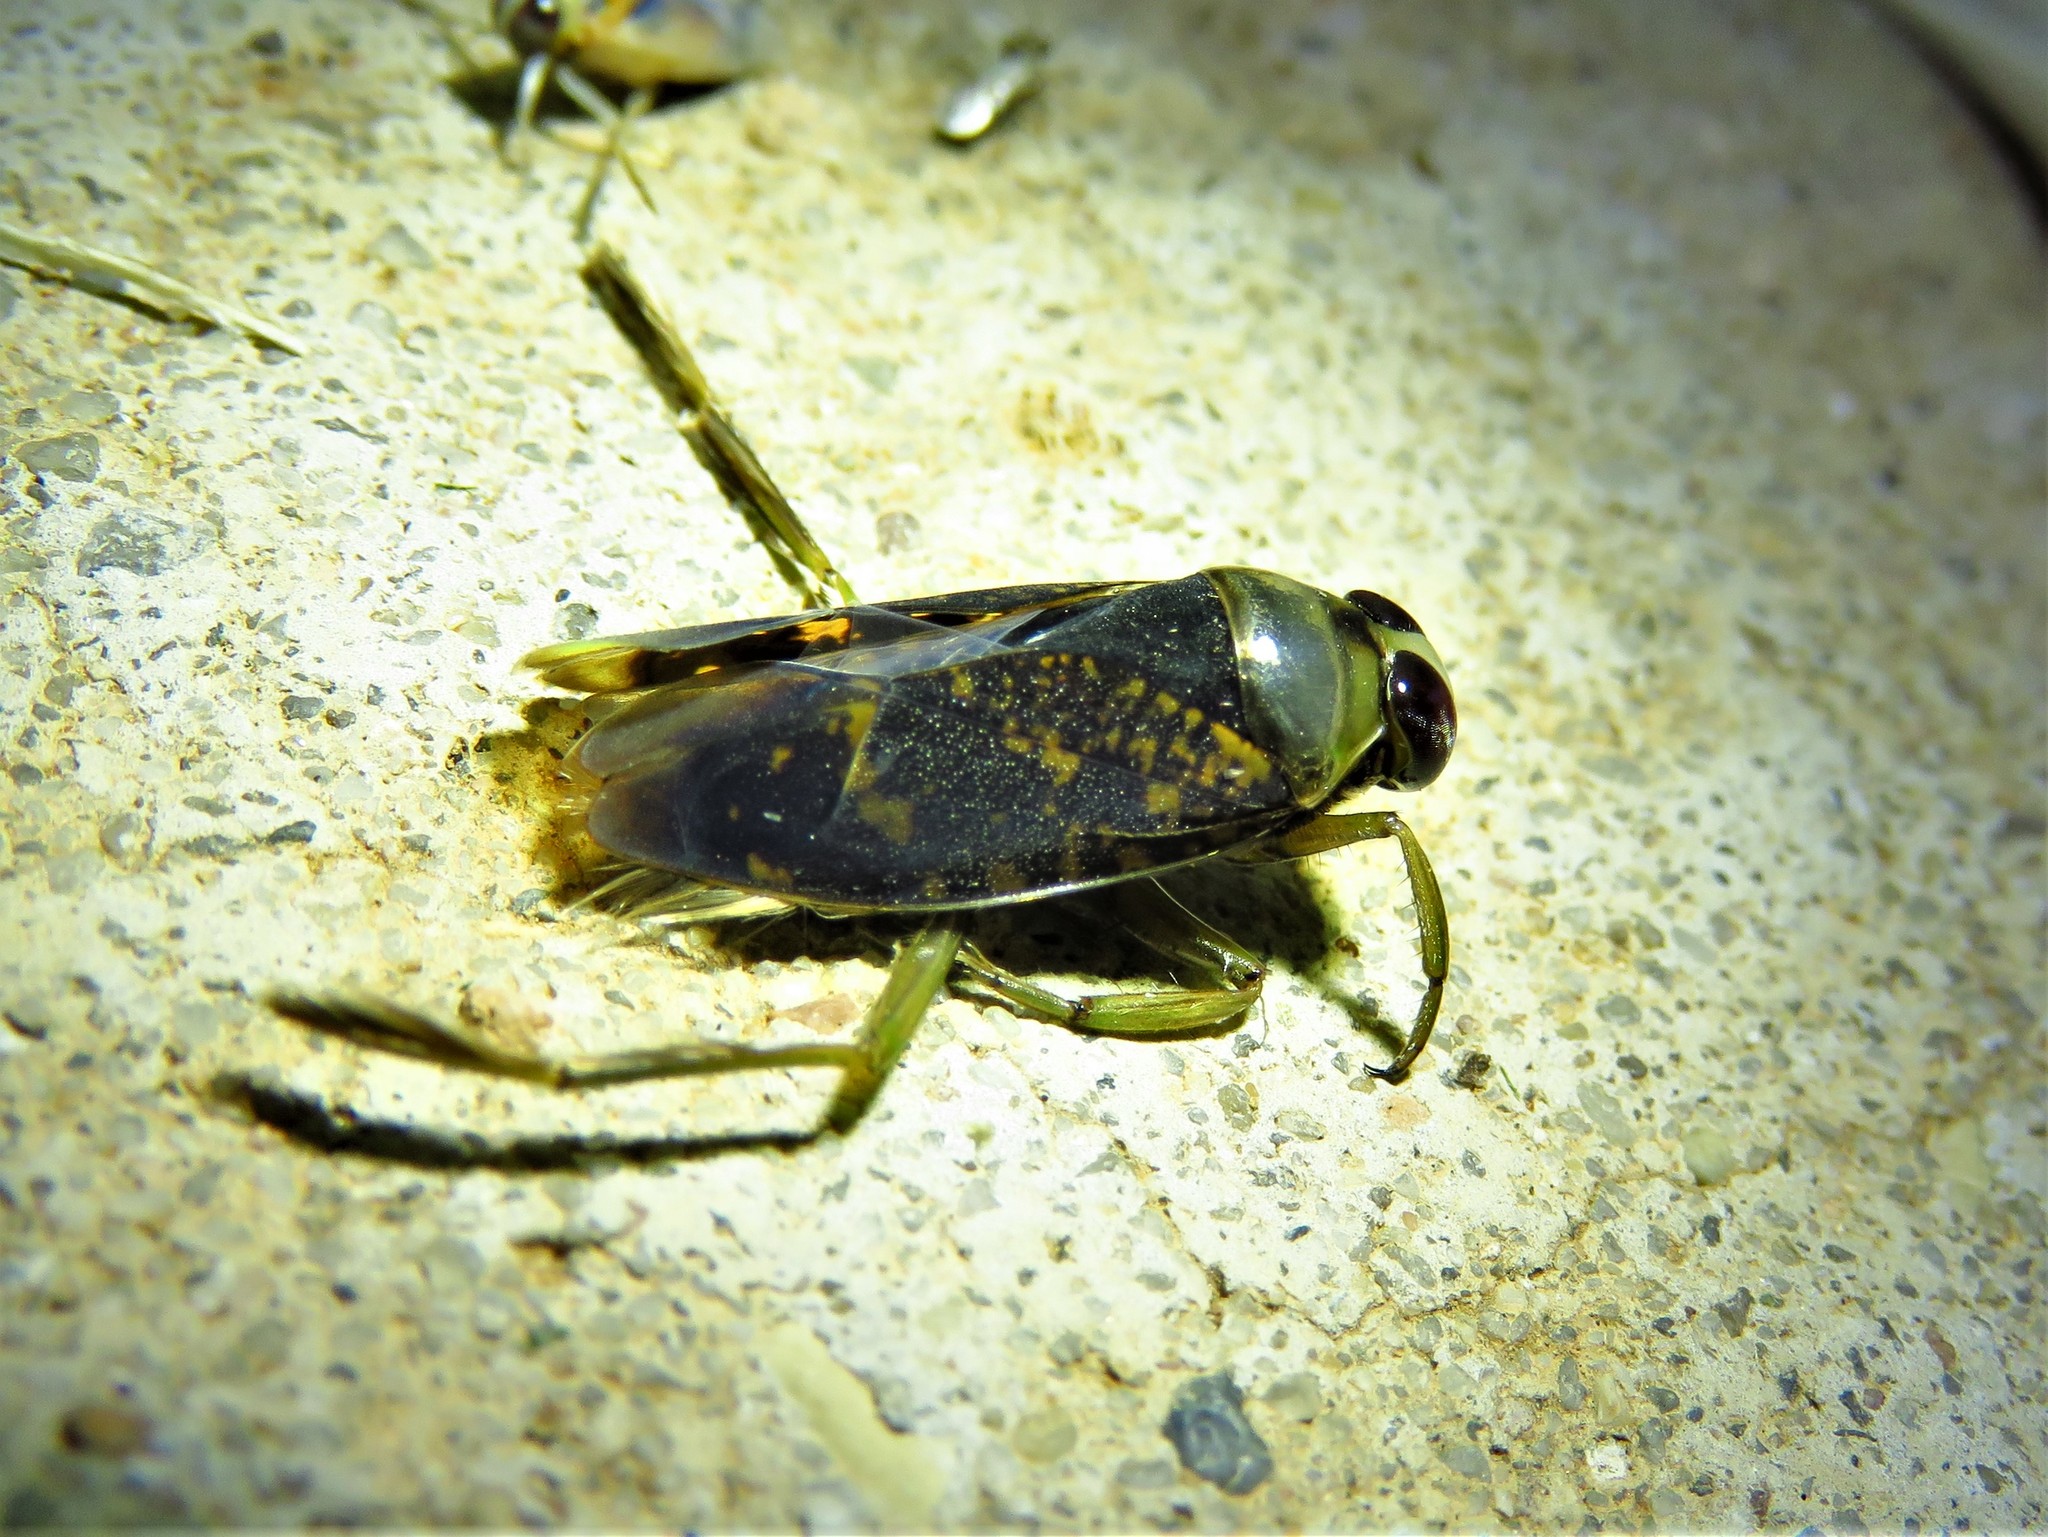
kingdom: Animalia
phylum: Arthropoda
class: Insecta
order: Hemiptera
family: Notonectidae
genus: Notonecta
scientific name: Notonecta irrorata
